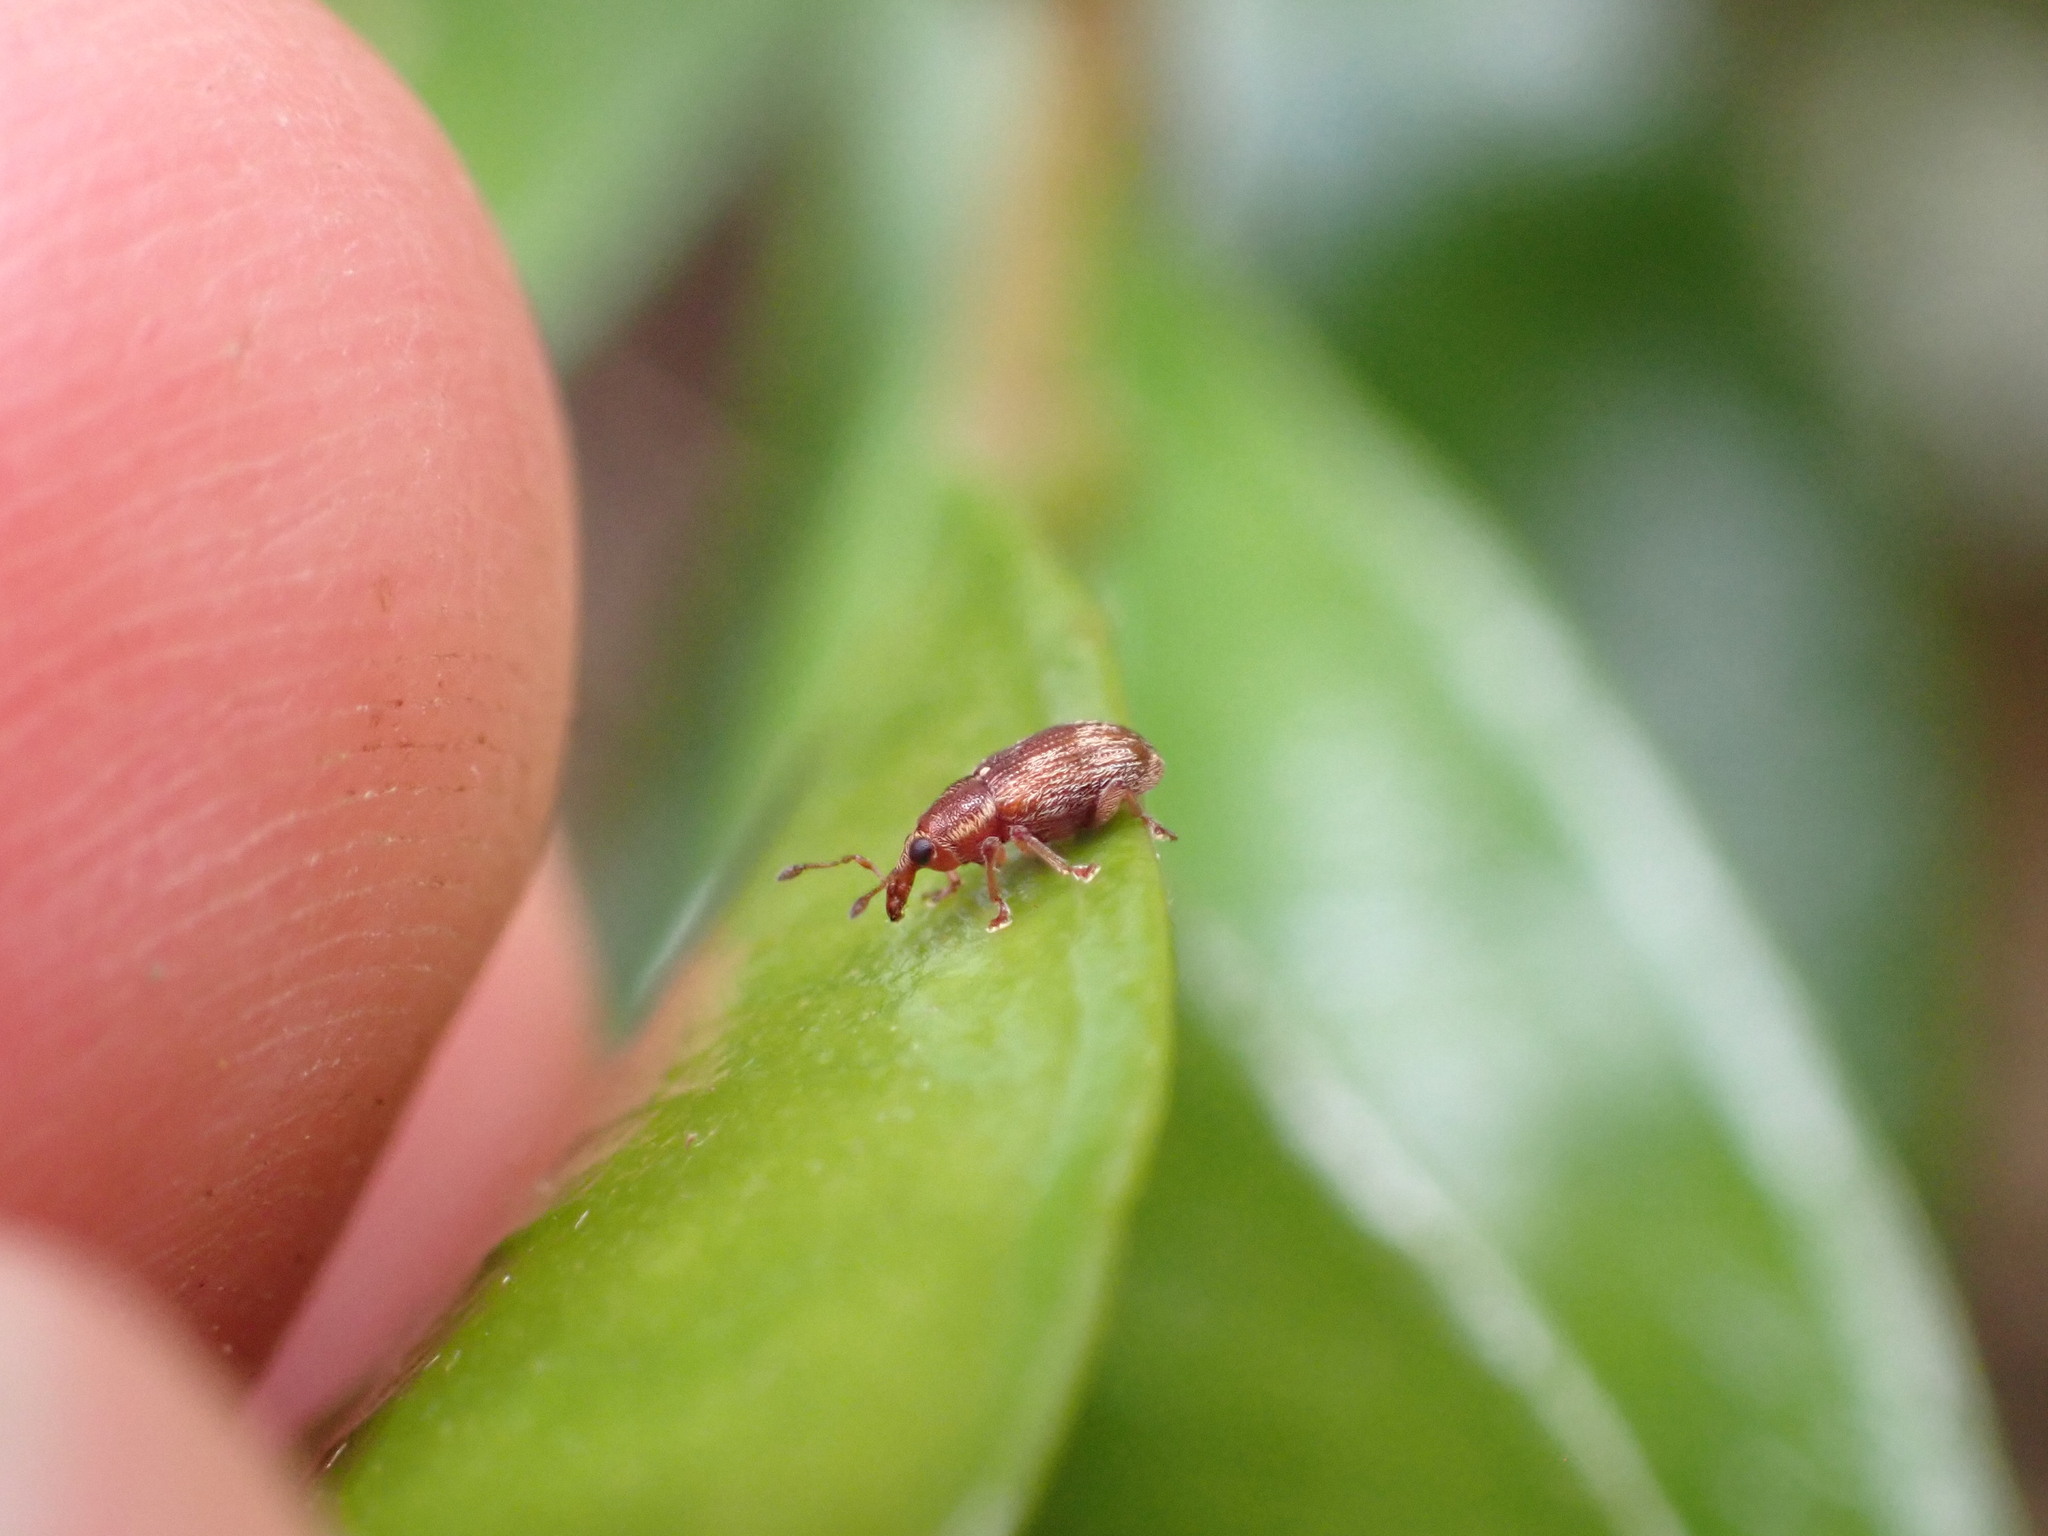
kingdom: Animalia
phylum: Arthropoda
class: Insecta
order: Coleoptera
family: Curculionidae
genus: Neomycta
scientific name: Neomycta rubida
